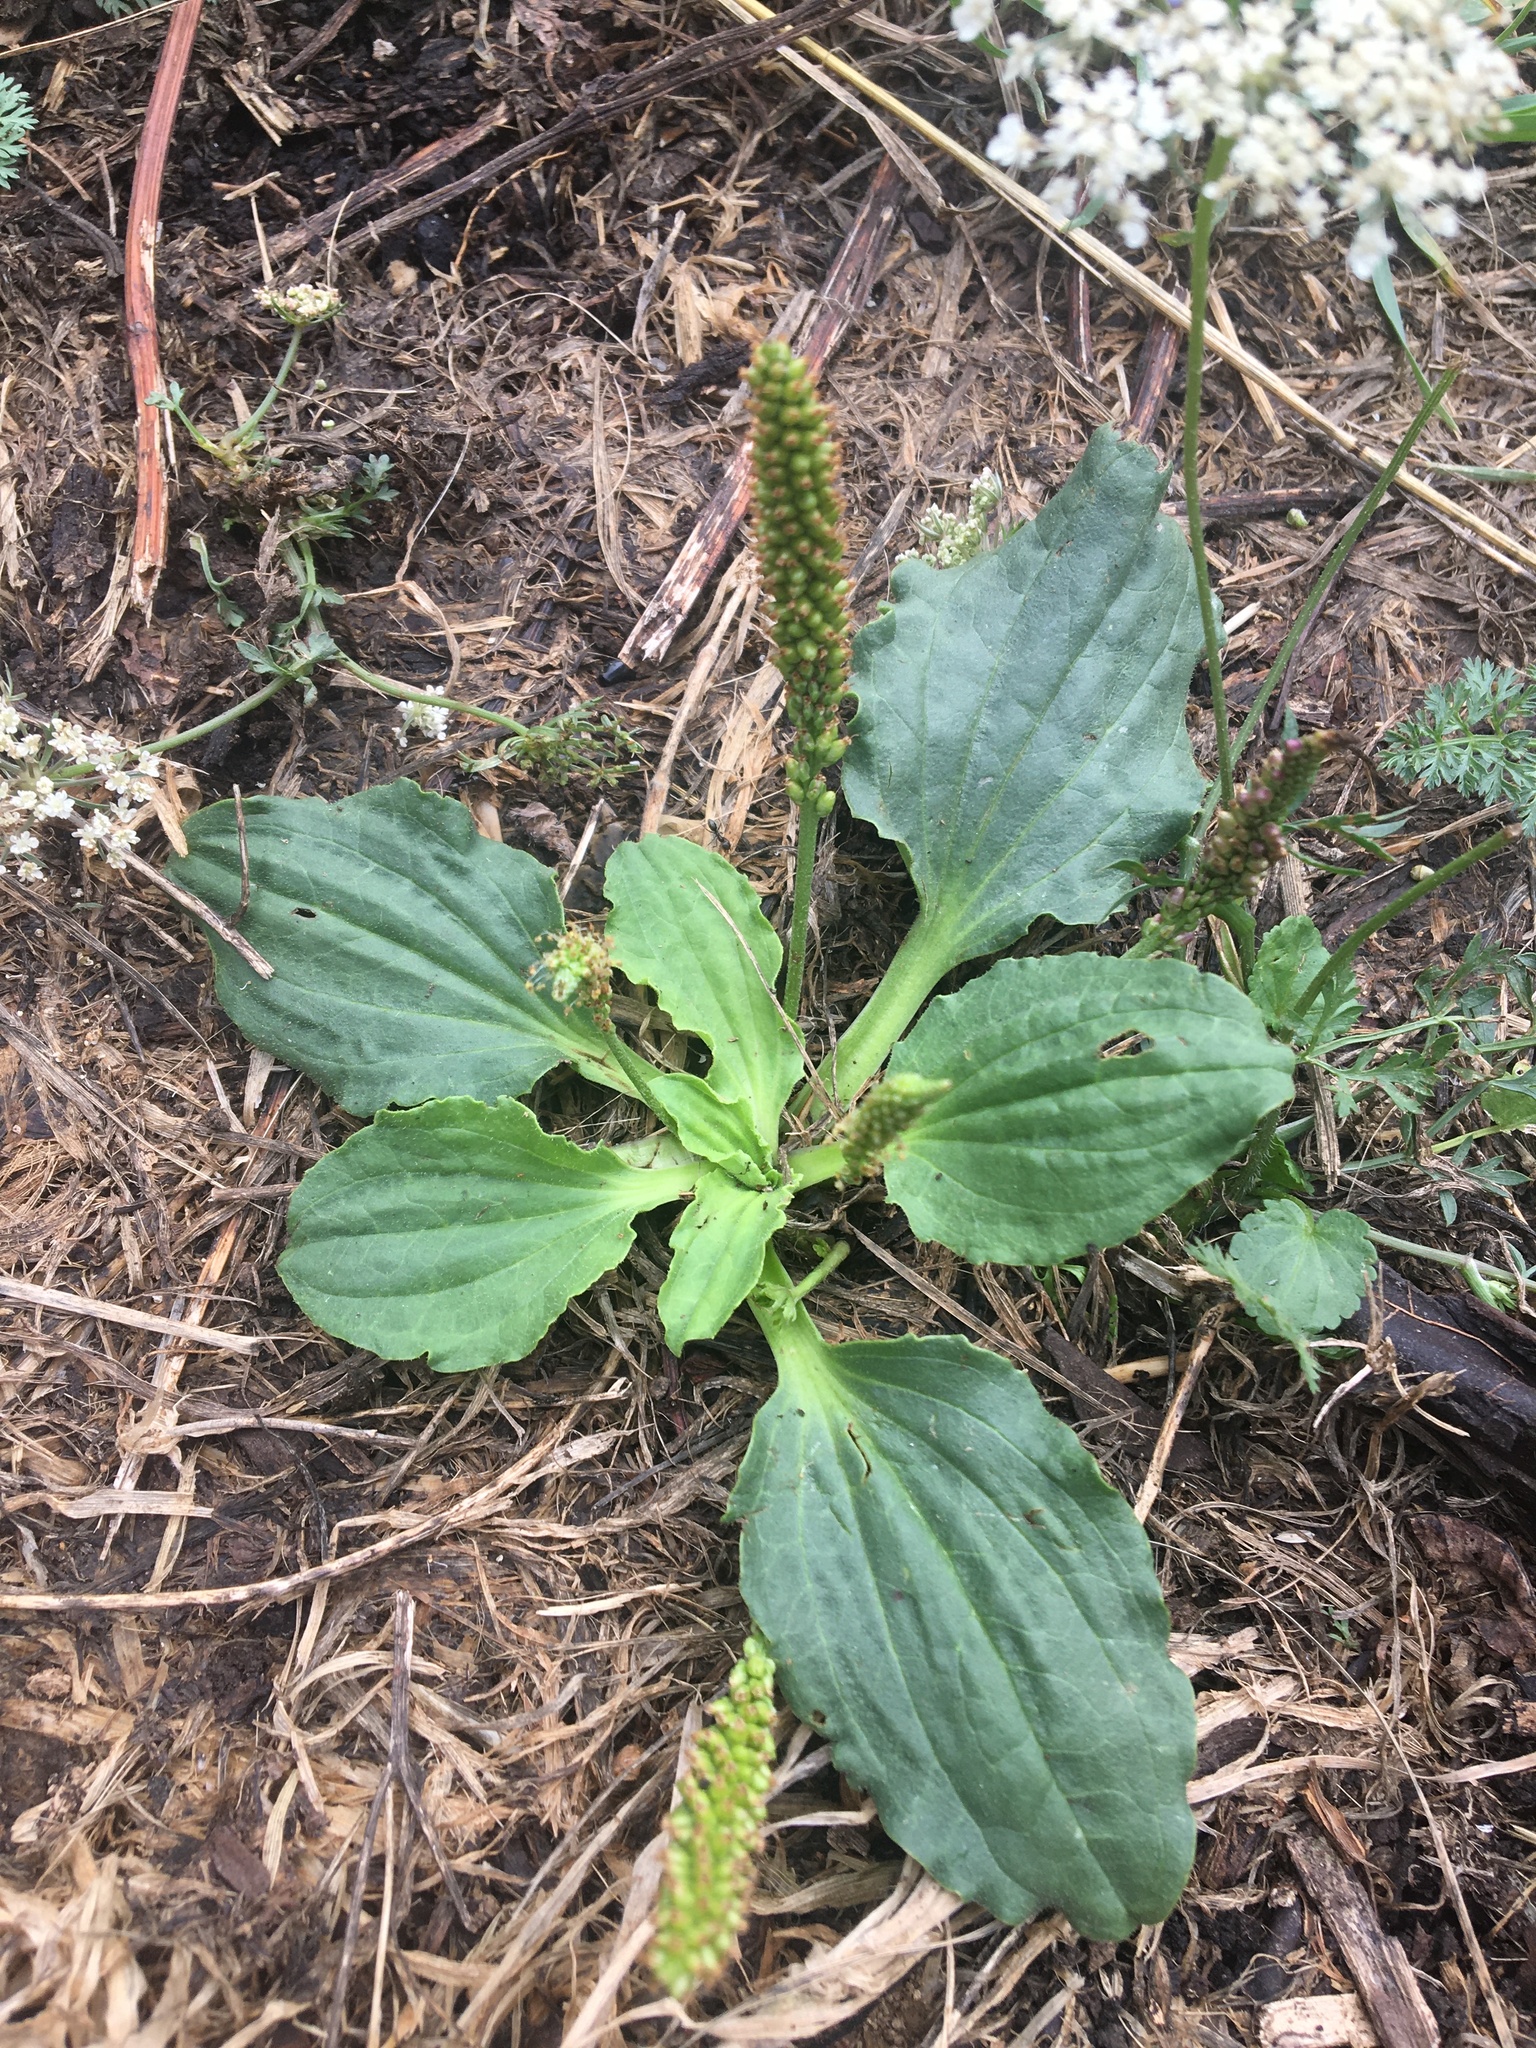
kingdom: Plantae
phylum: Tracheophyta
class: Magnoliopsida
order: Lamiales
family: Plantaginaceae
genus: Plantago
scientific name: Plantago major
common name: Common plantain
